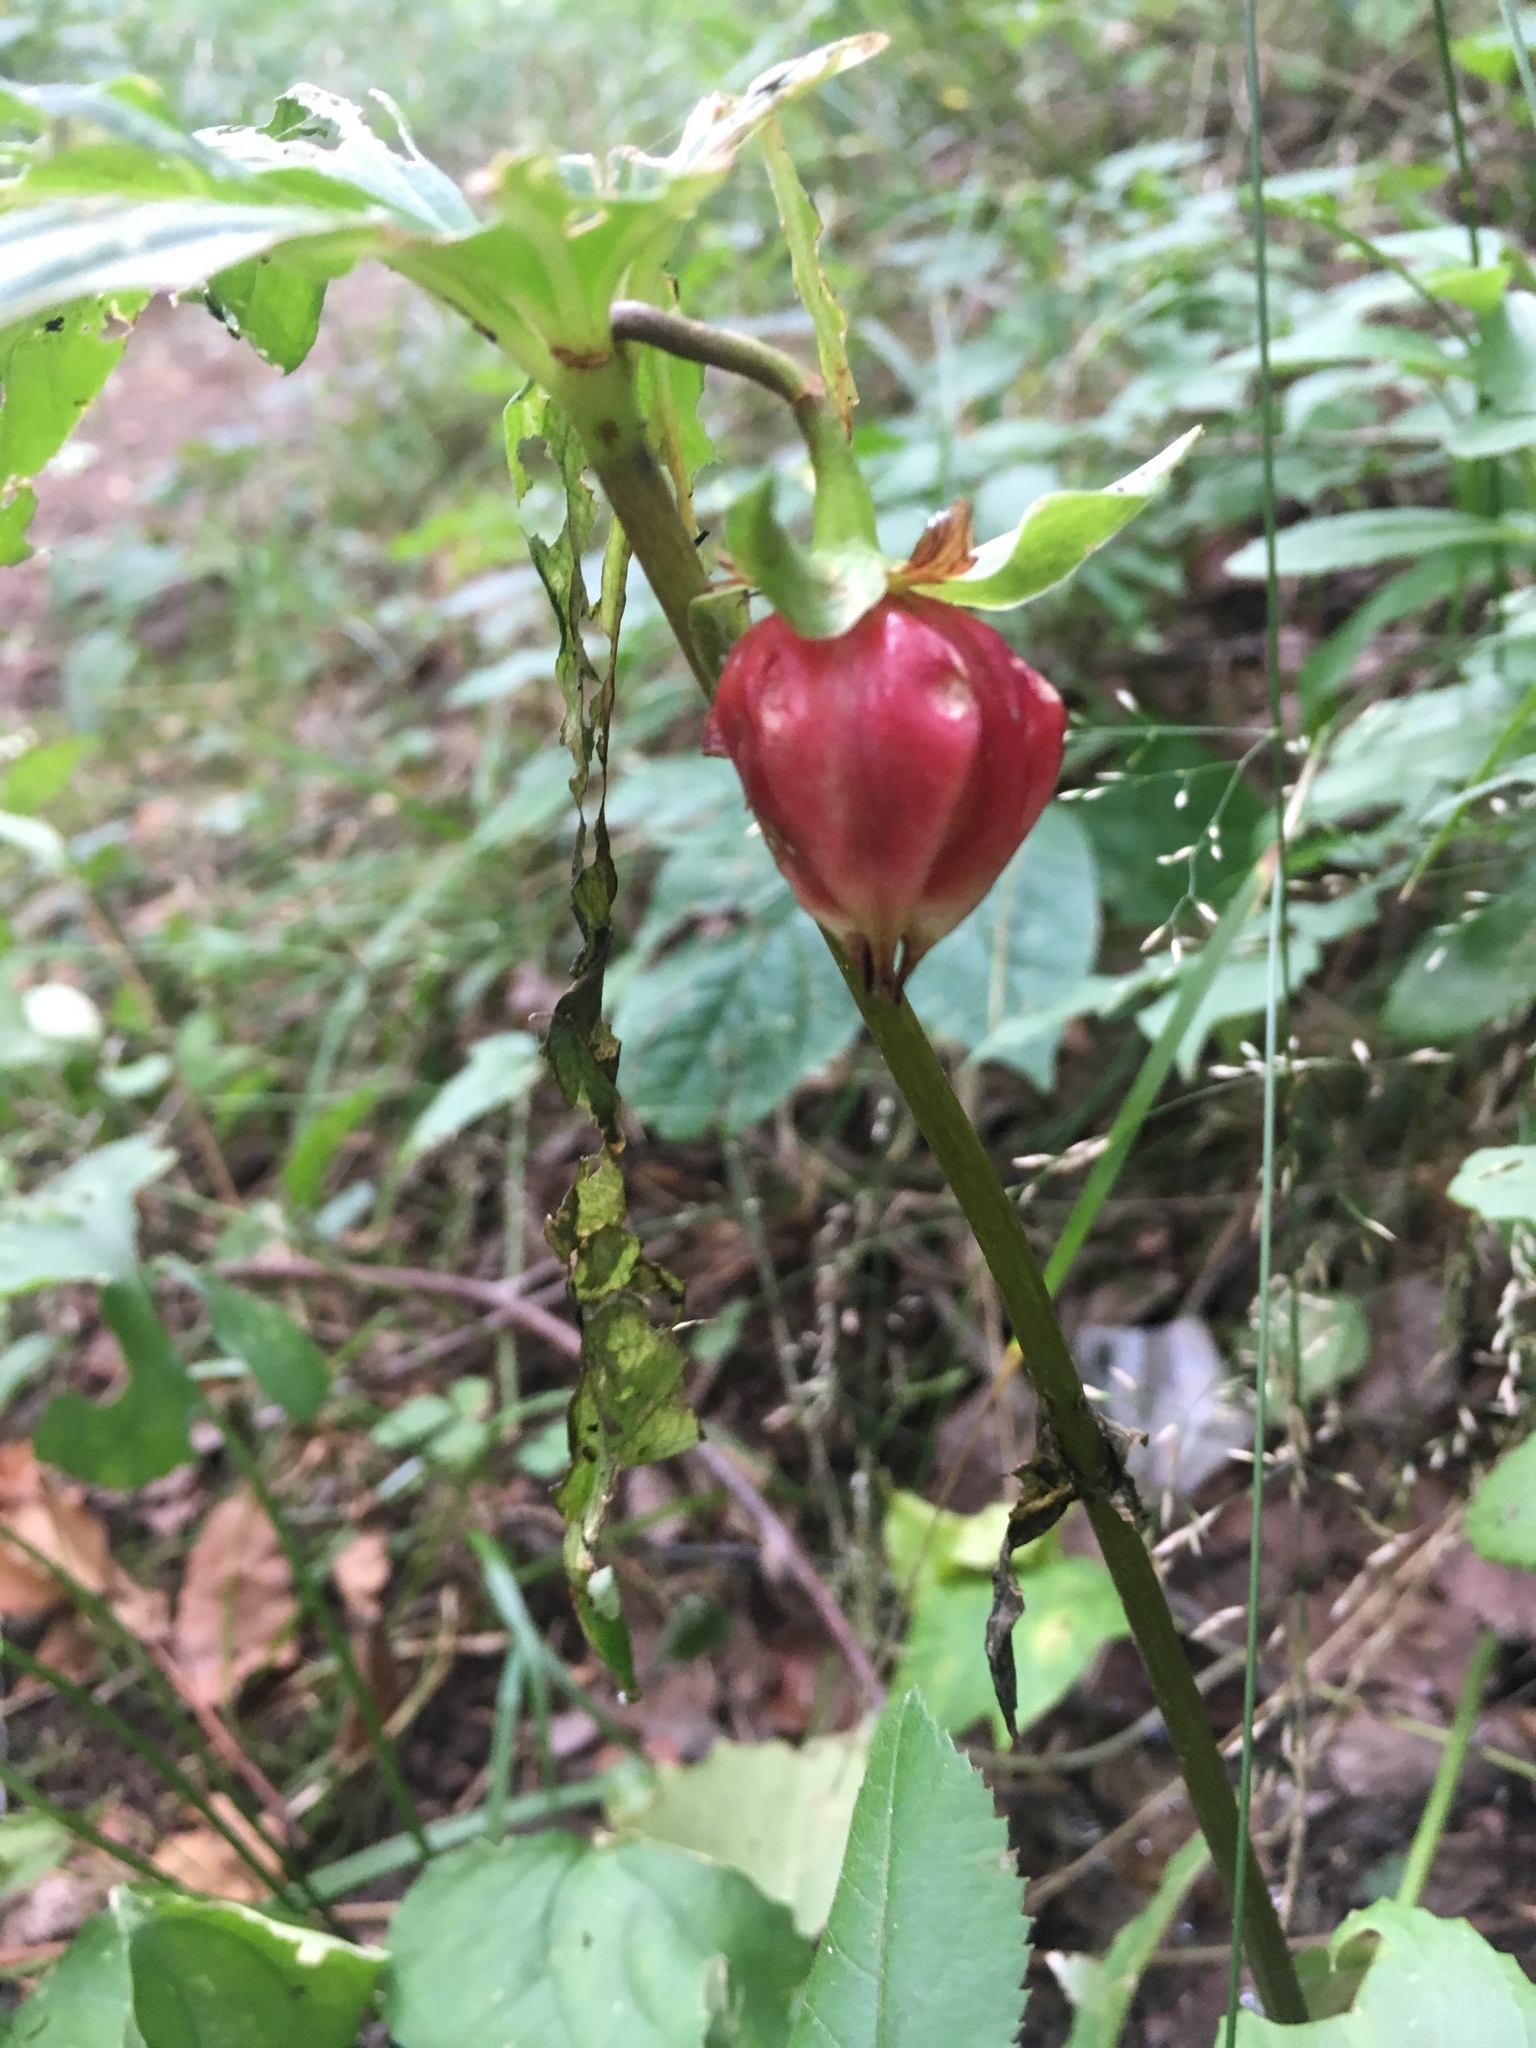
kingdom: Plantae
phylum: Tracheophyta
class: Liliopsida
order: Liliales
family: Melanthiaceae
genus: Trillium
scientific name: Trillium cernuum
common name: Nodding trillium
